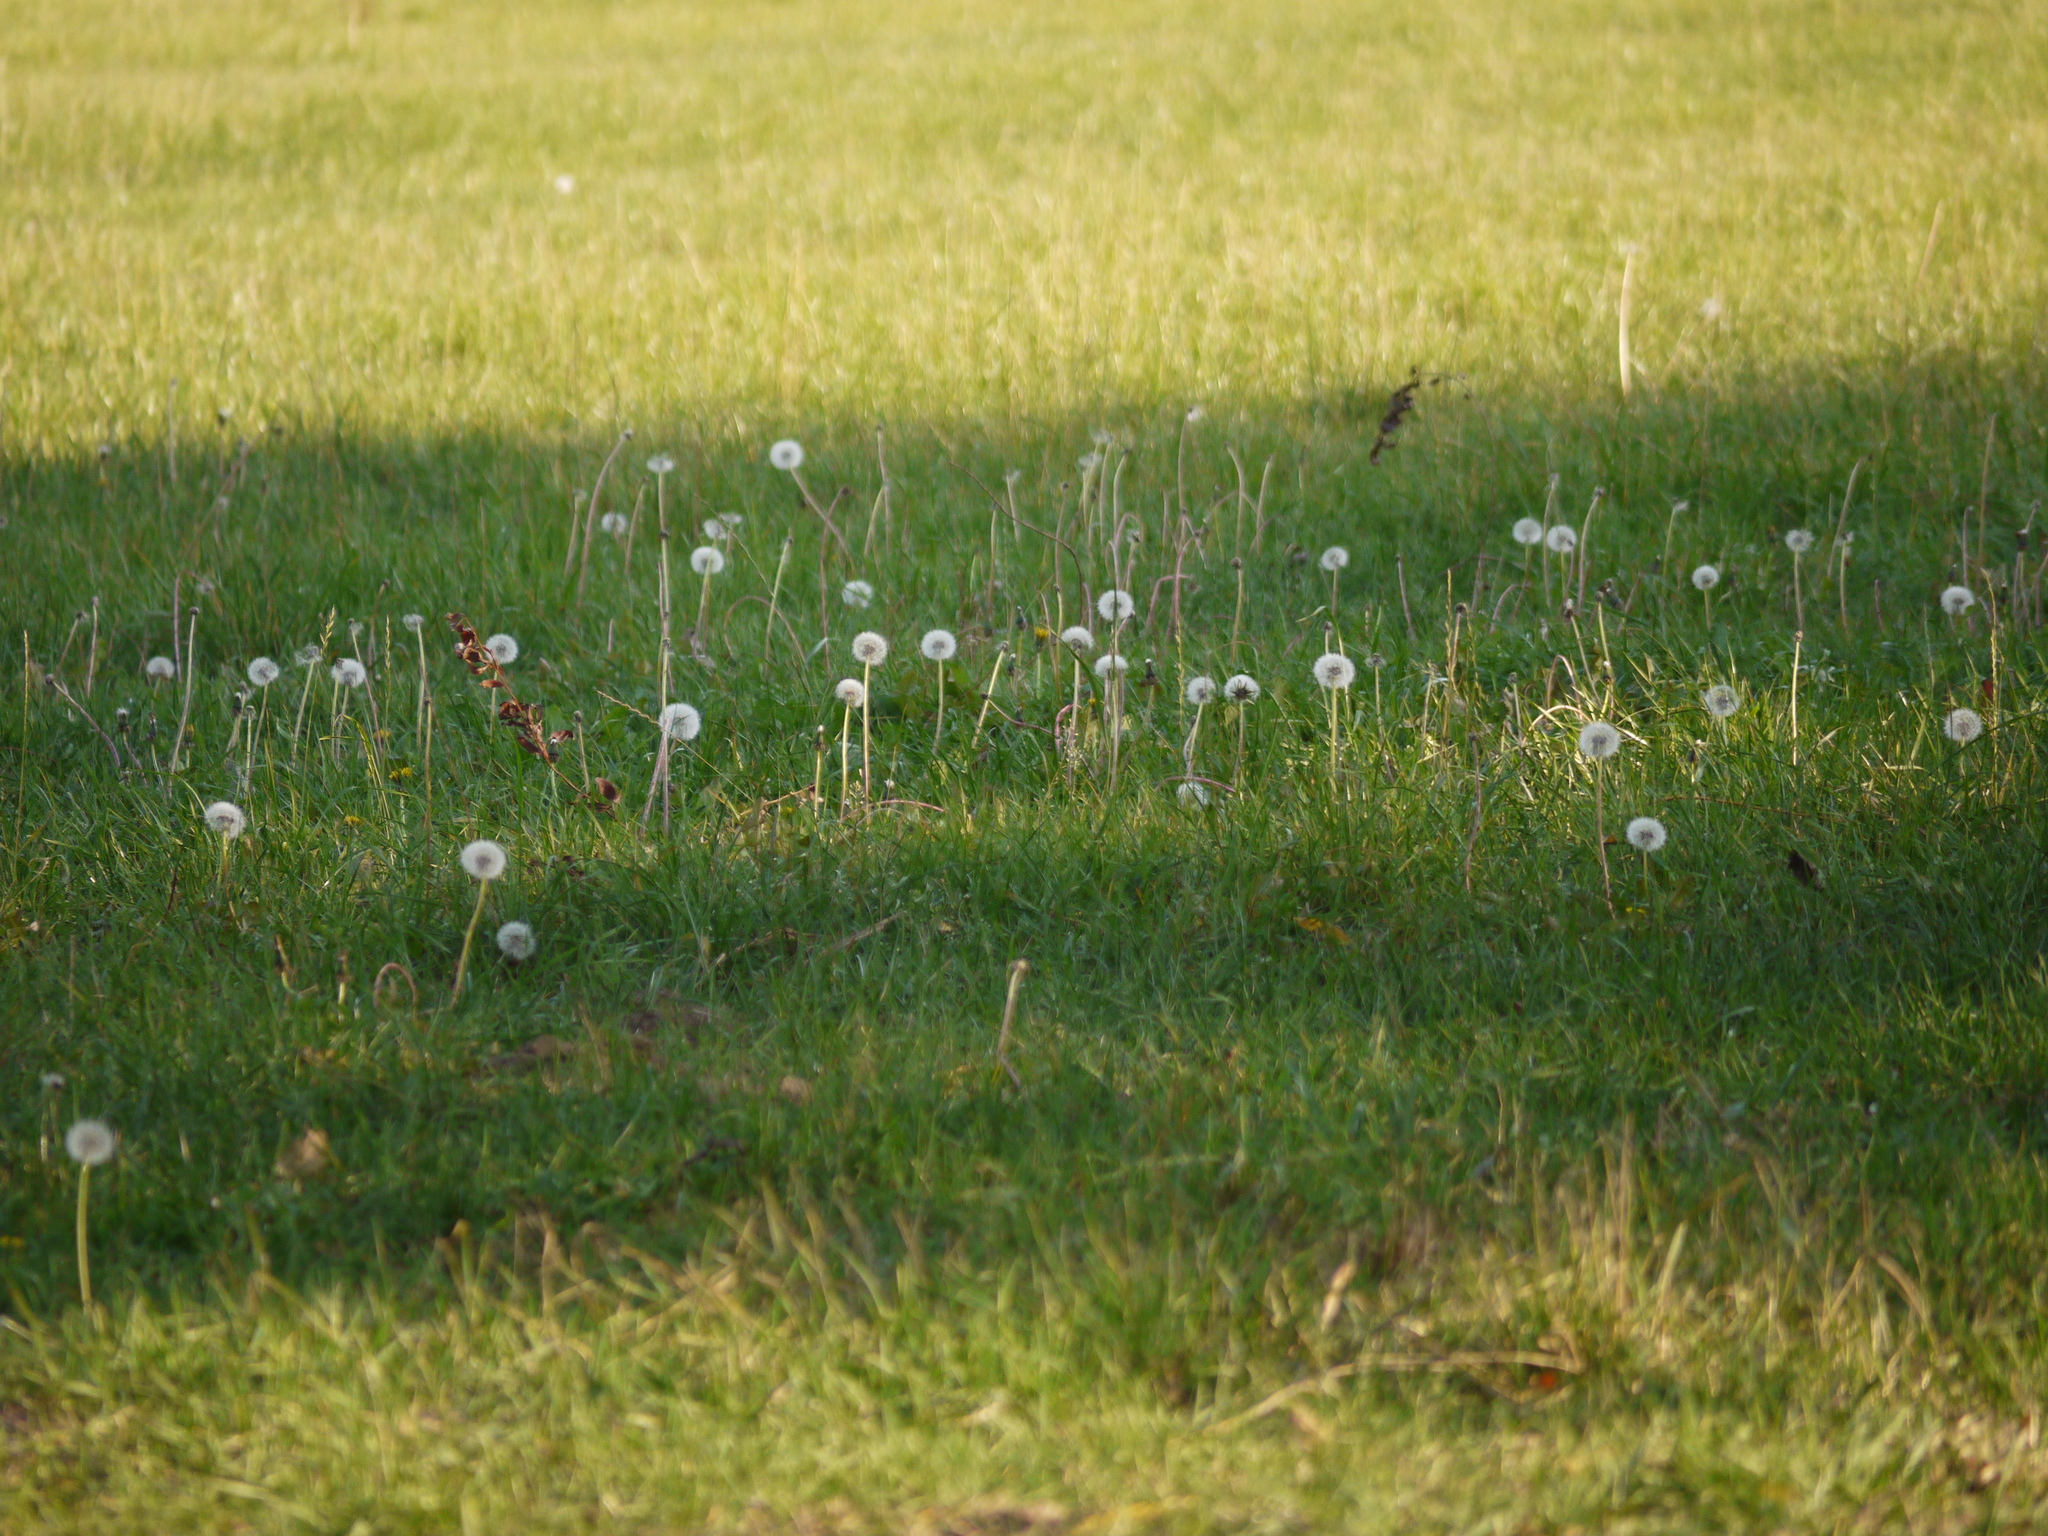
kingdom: Plantae
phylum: Tracheophyta
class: Magnoliopsida
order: Asterales
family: Asteraceae
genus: Taraxacum
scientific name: Taraxacum officinale
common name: Common dandelion
